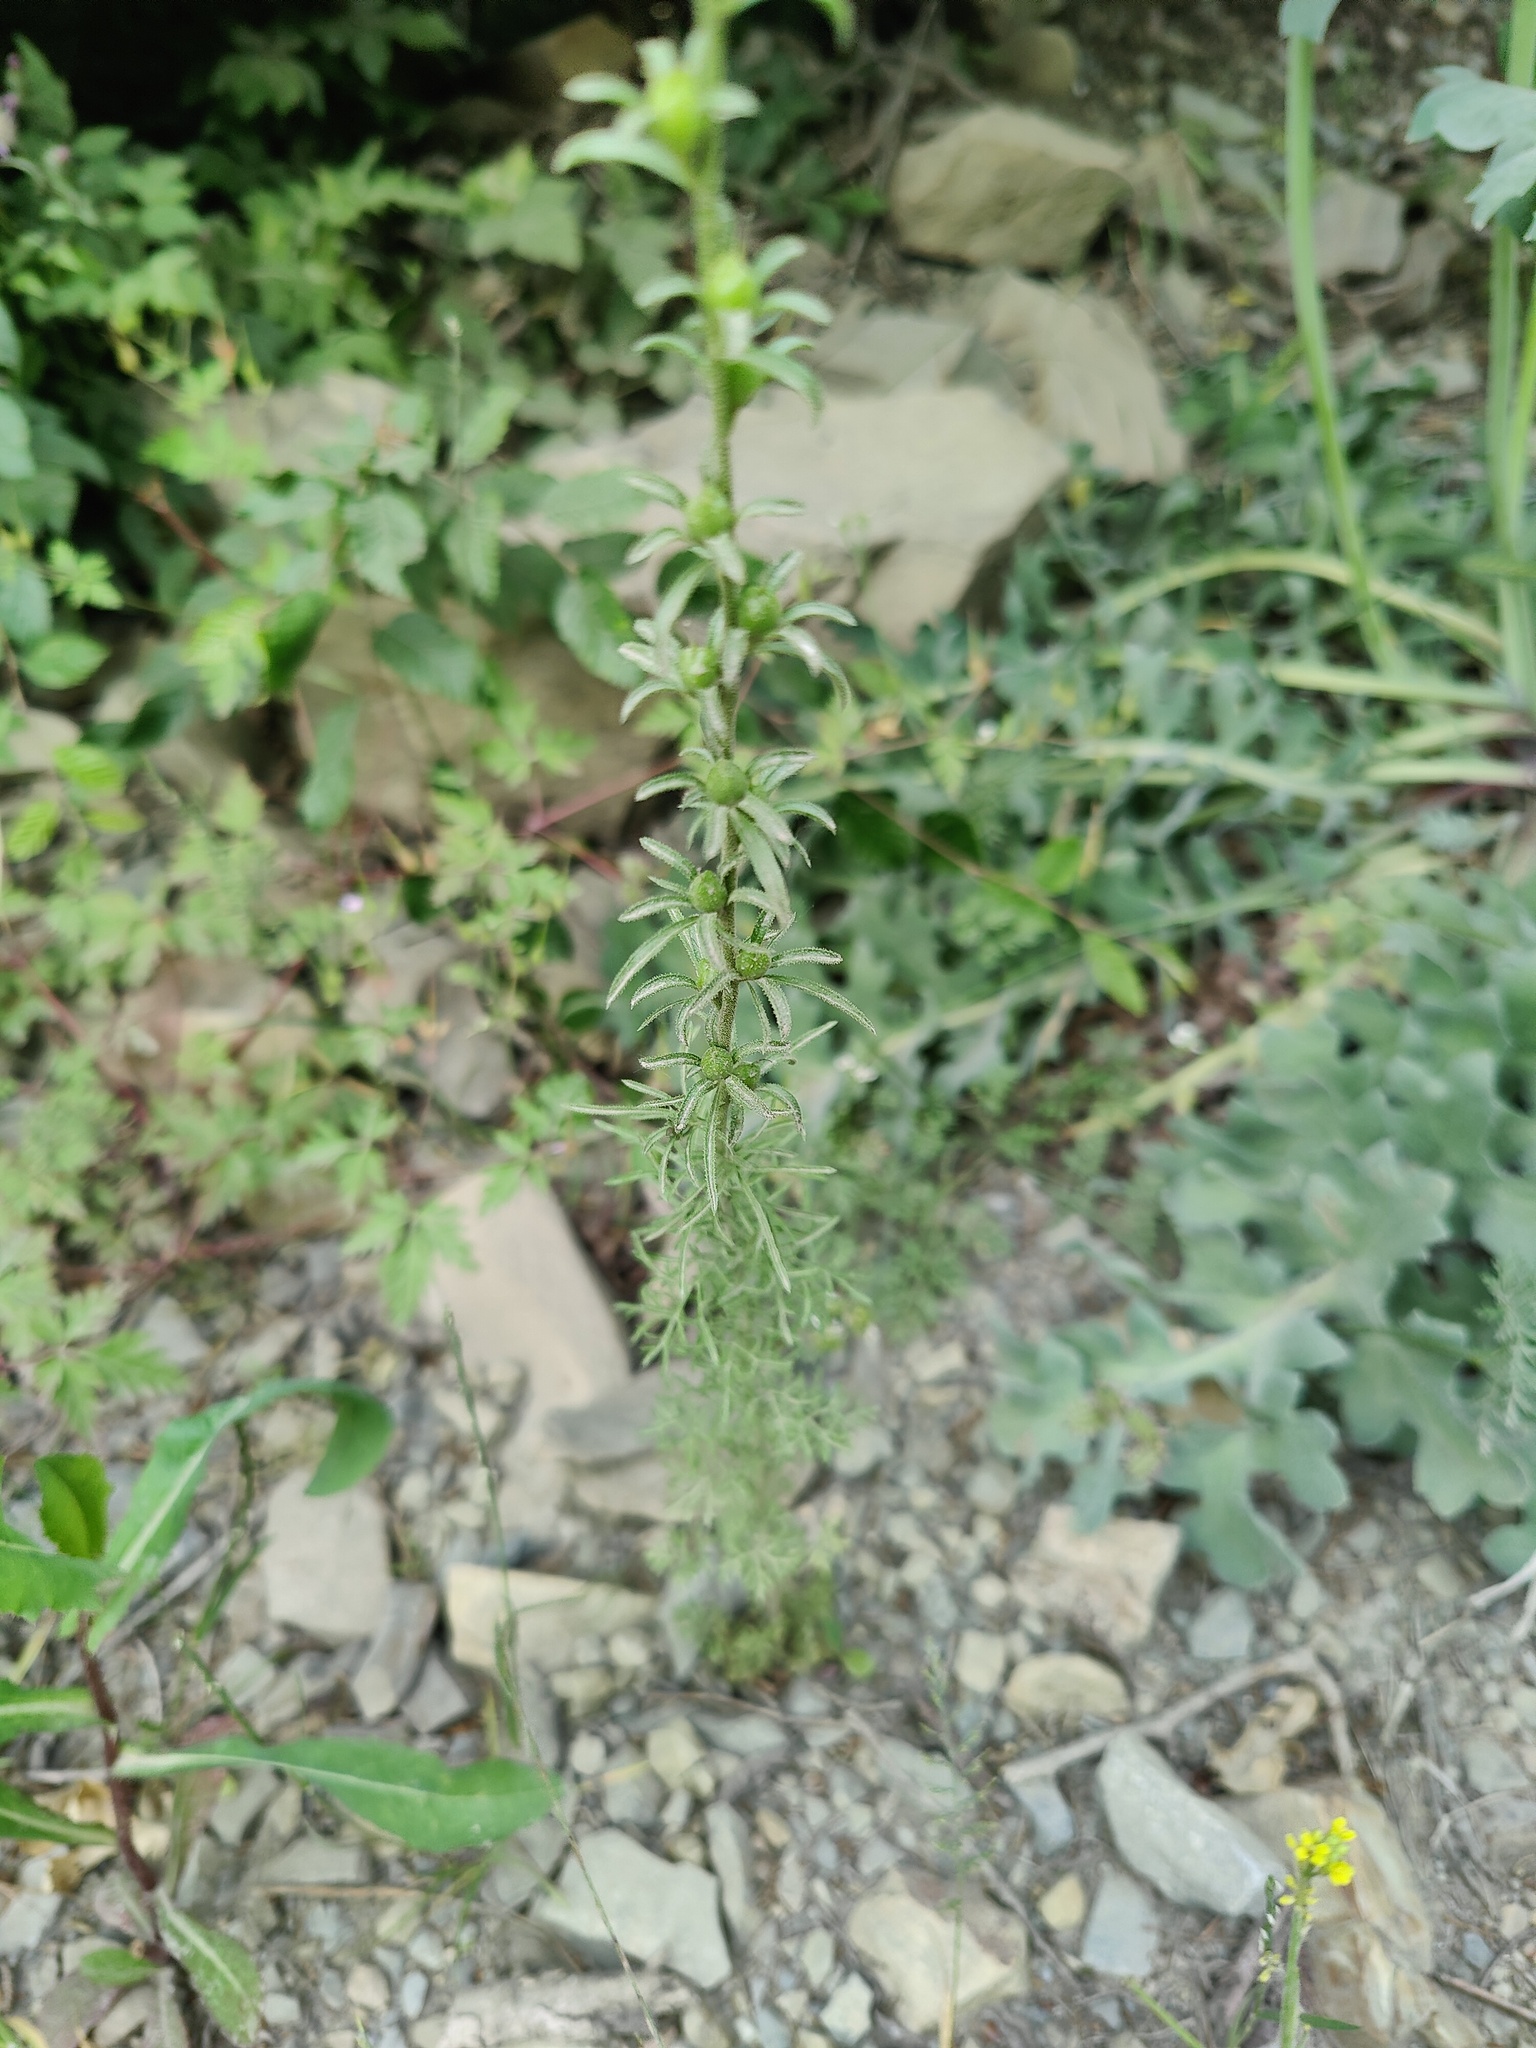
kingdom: Plantae
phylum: Tracheophyta
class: Magnoliopsida
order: Lamiales
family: Scrophulariaceae
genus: Verbascum
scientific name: Verbascum orientale
